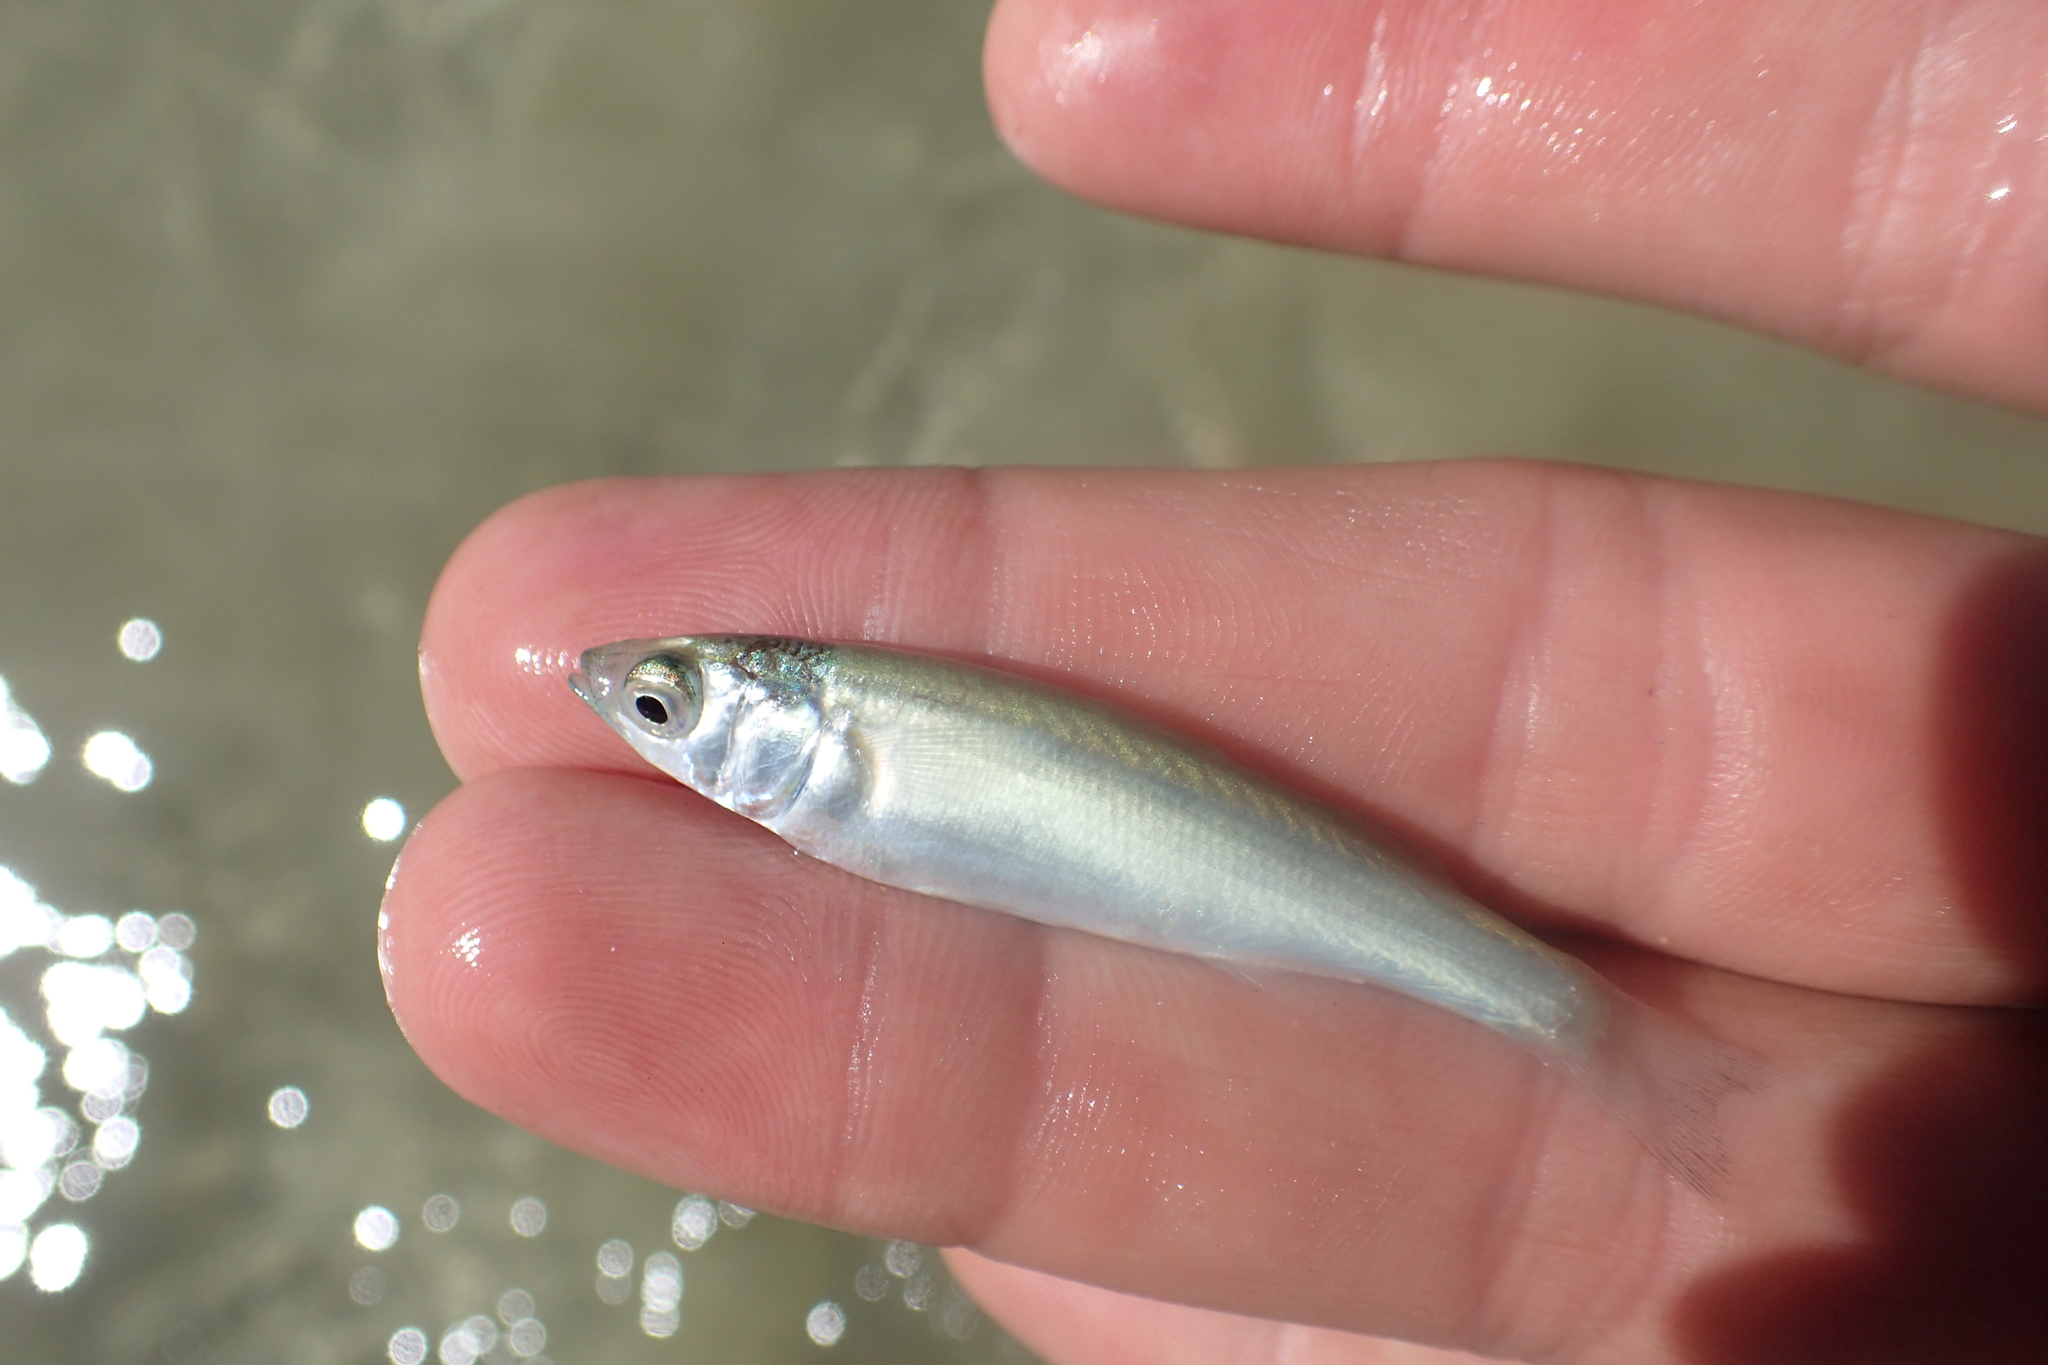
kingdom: Animalia
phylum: Chordata
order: Mugiliformes
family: Mugilidae
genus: Aldrichetta
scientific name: Aldrichetta forsteri
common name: Yellow-eye mullet
